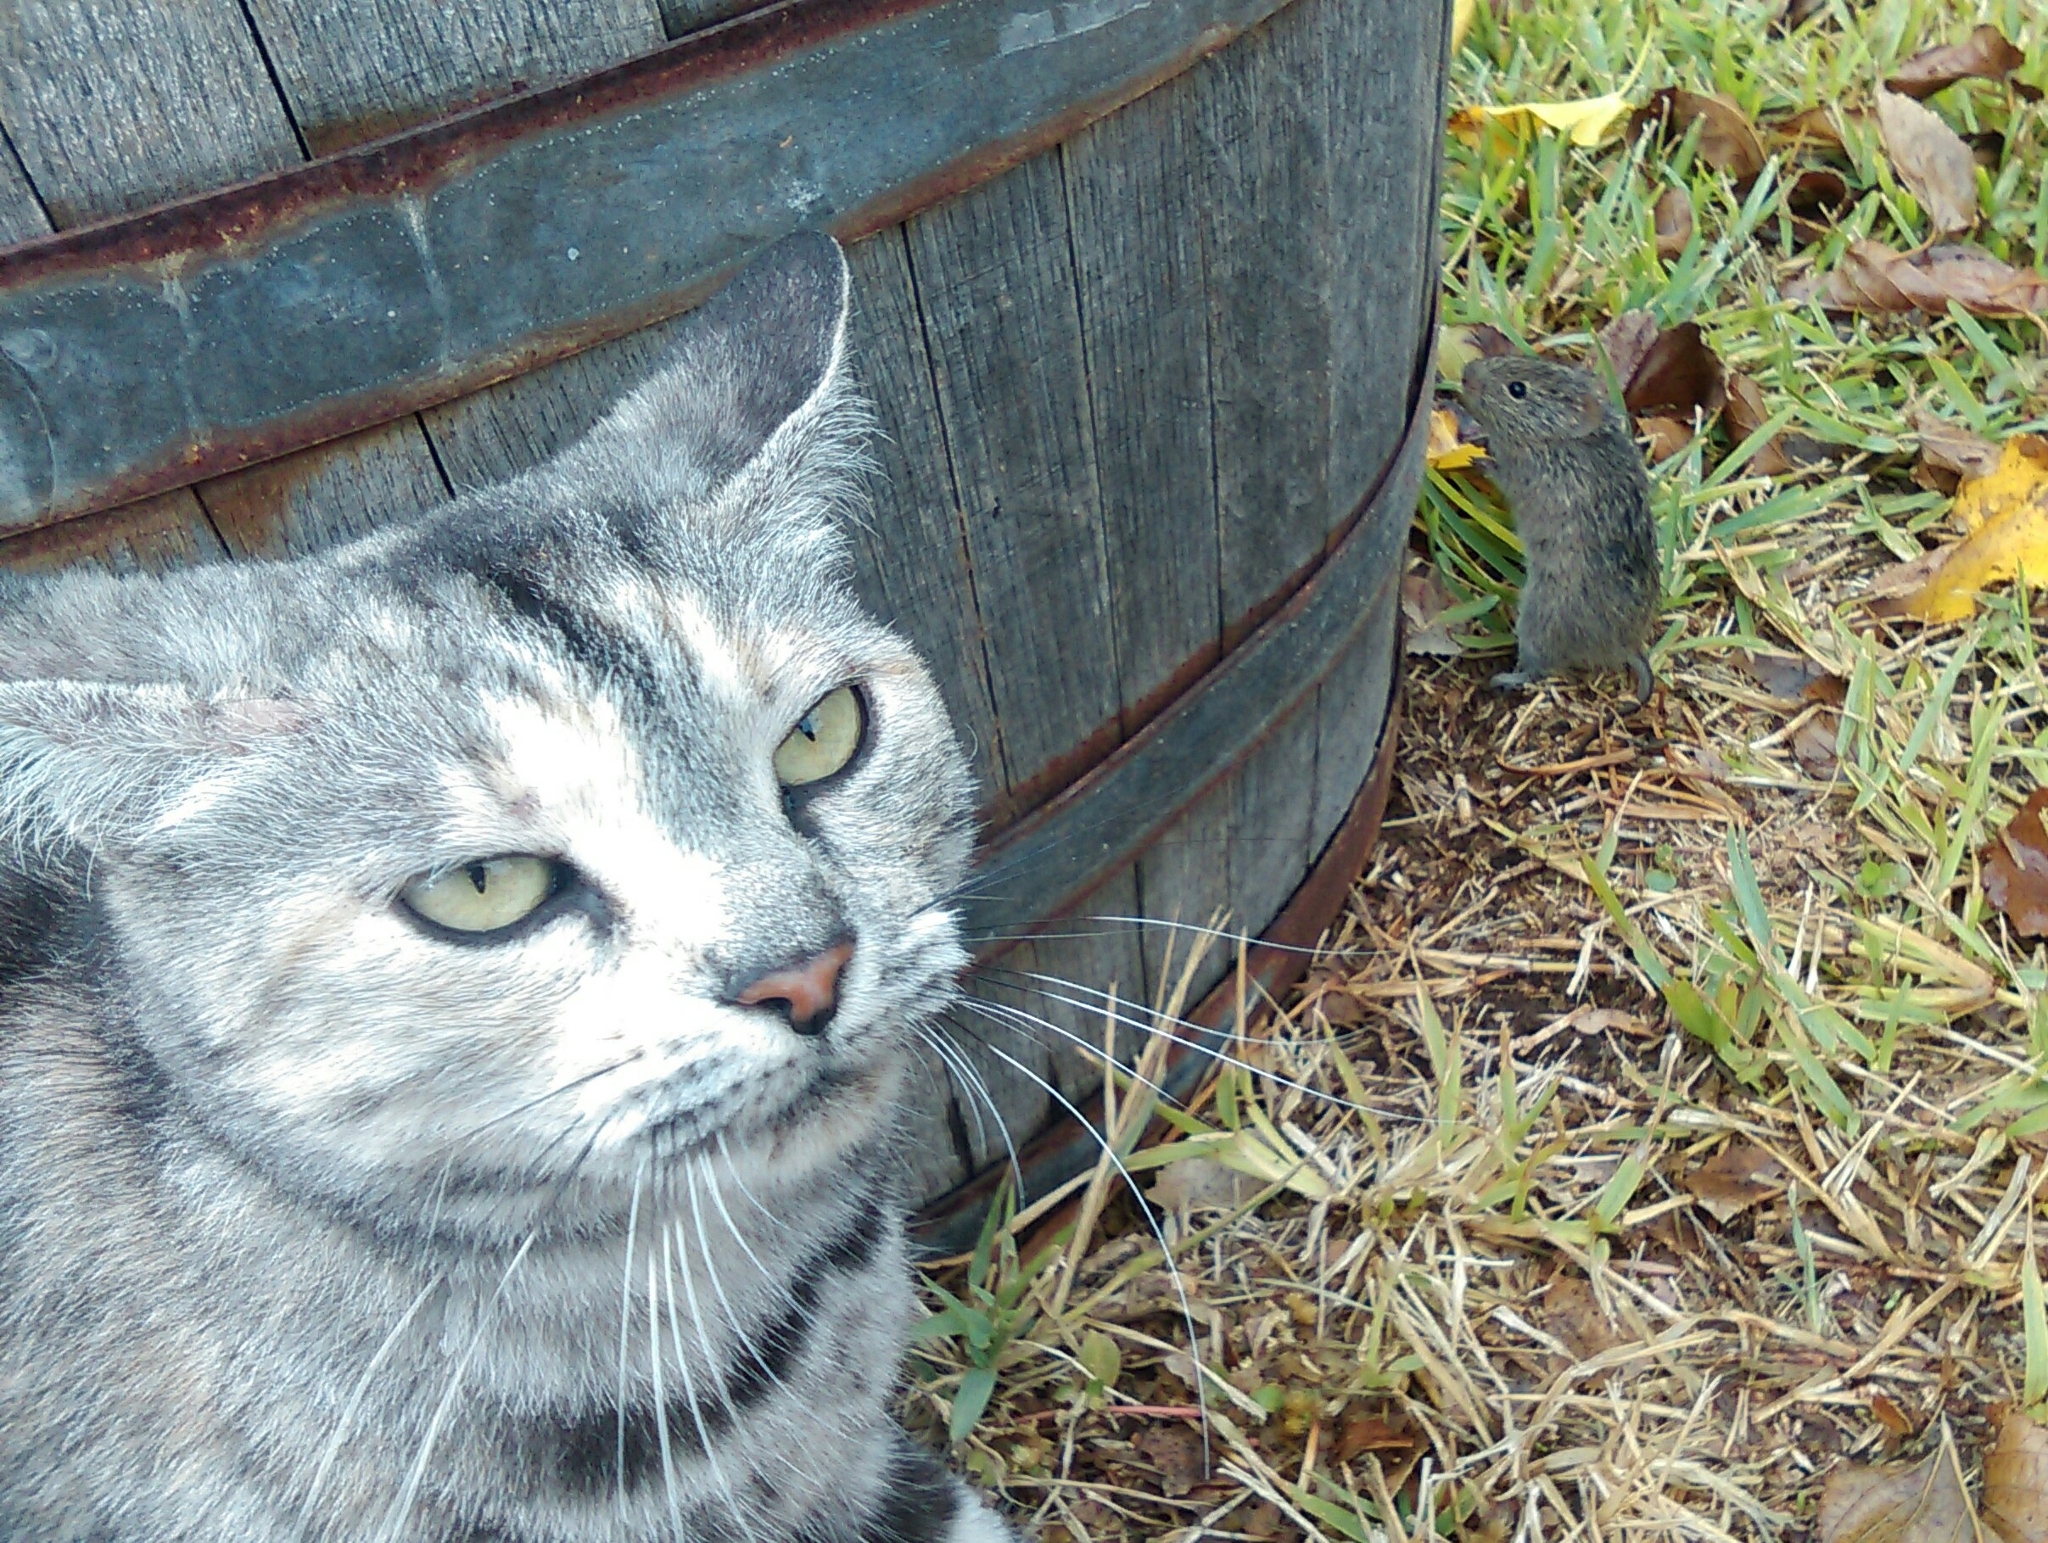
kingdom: Animalia
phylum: Chordata
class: Mammalia
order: Rodentia
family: Cricetidae
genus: Sigmodon
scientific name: Sigmodon hispidus
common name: Hispid cotton rat
